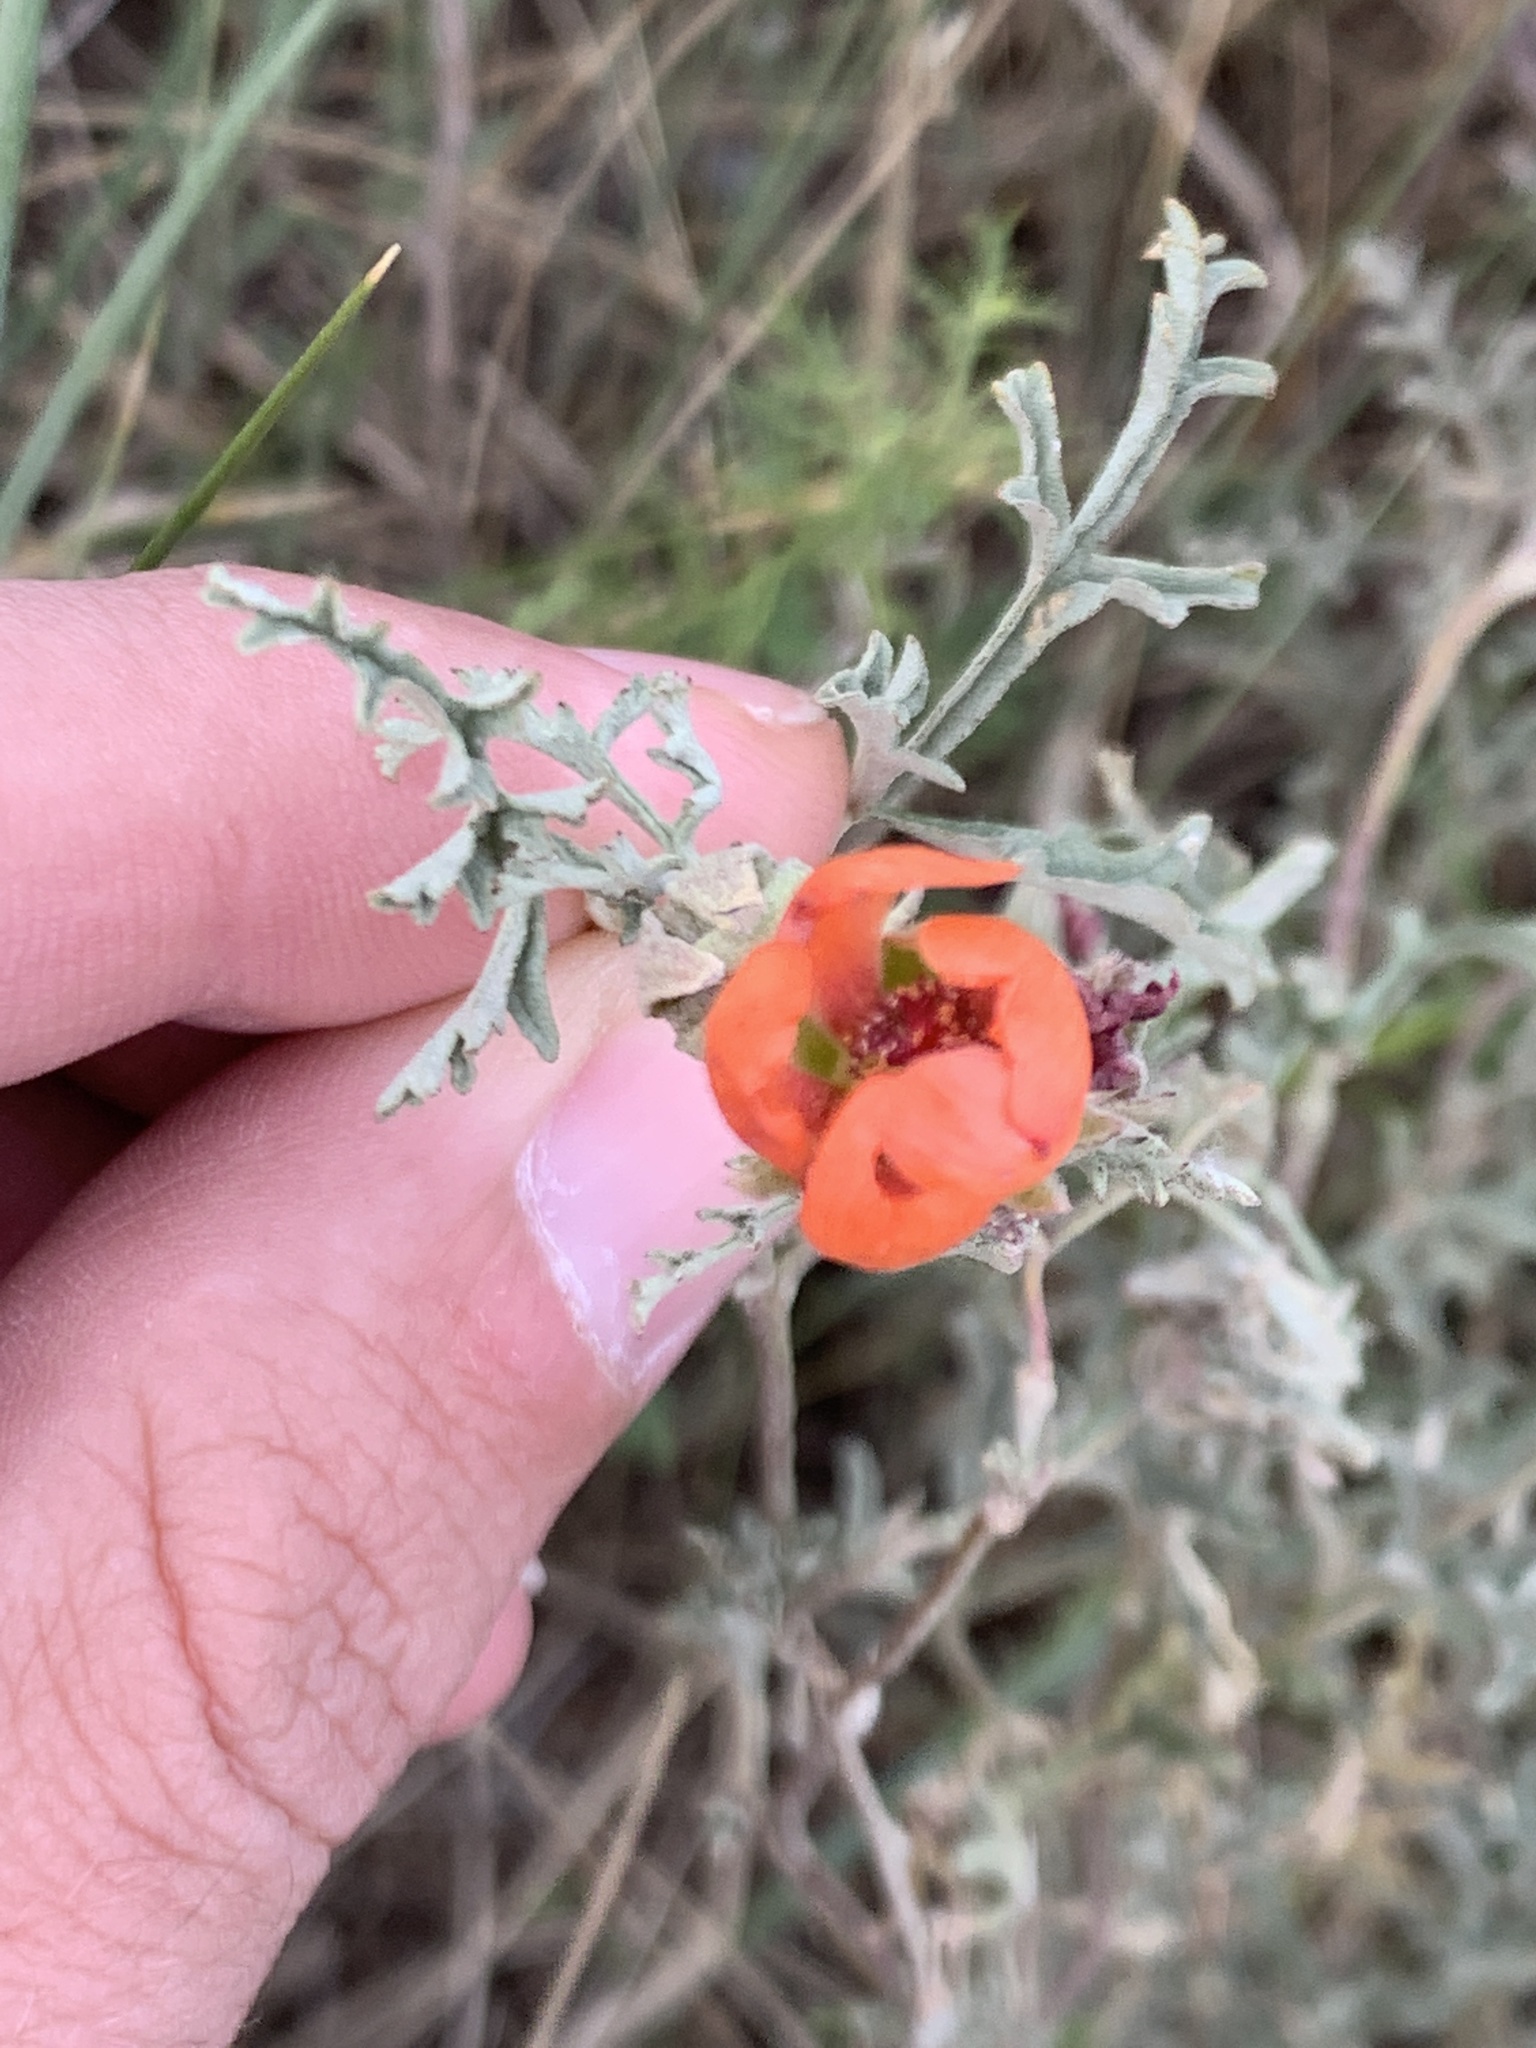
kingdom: Plantae
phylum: Tracheophyta
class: Magnoliopsida
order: Malvales
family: Malvaceae
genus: Sphaeralcea
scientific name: Sphaeralcea australis
